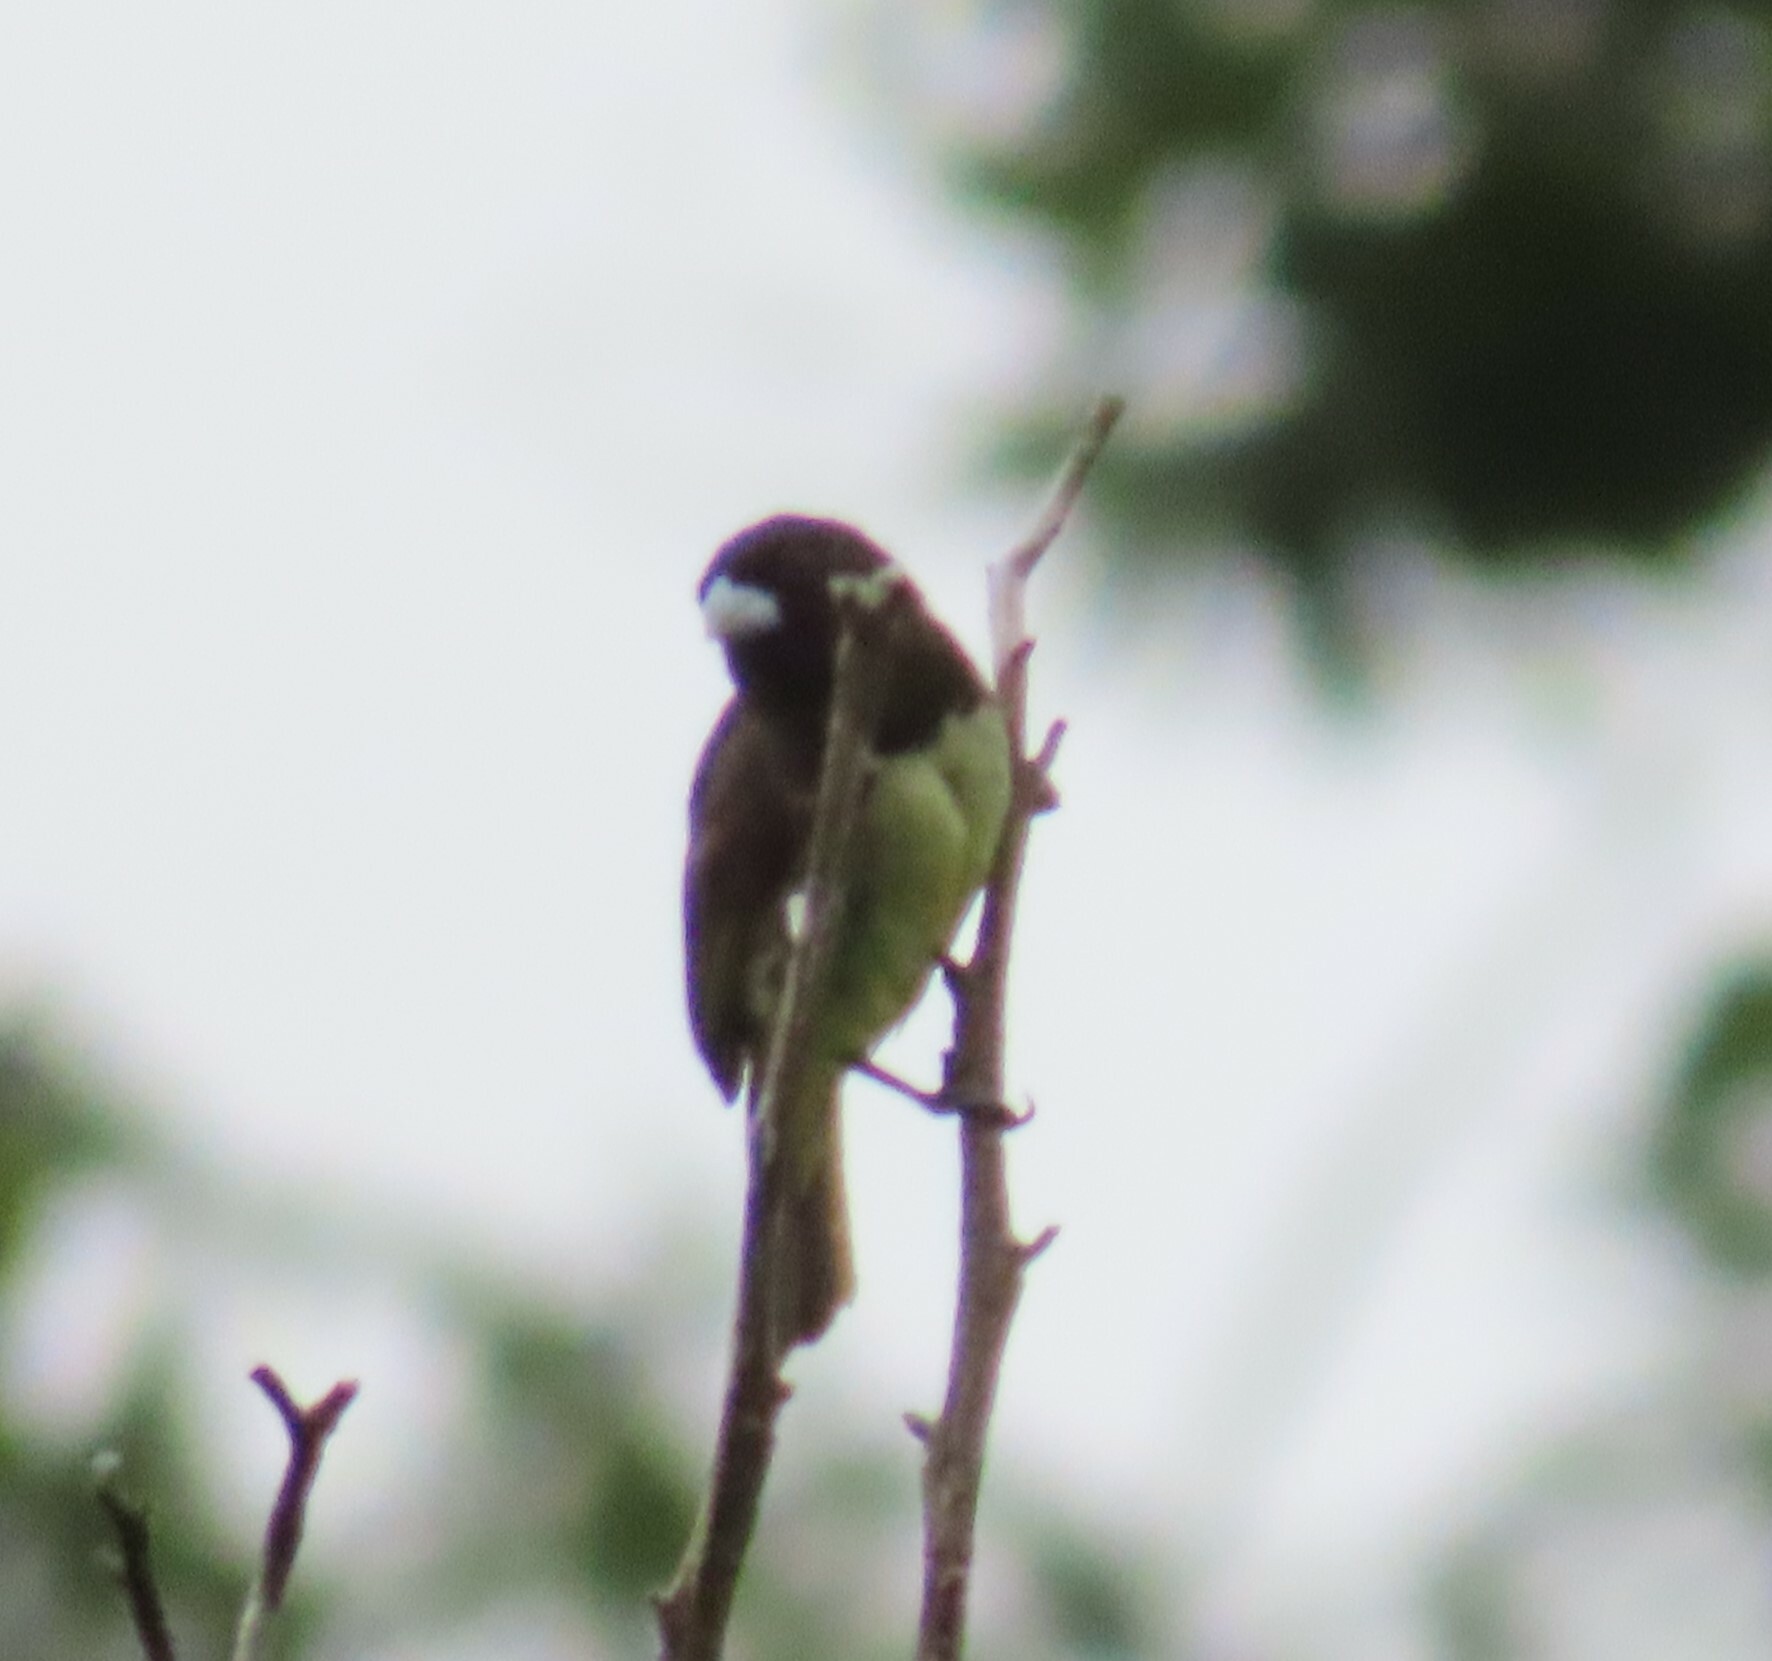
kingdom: Animalia
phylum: Chordata
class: Aves
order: Passeriformes
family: Thraupidae
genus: Sporophila
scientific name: Sporophila nigricollis
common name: Yellow-bellied seedeater
